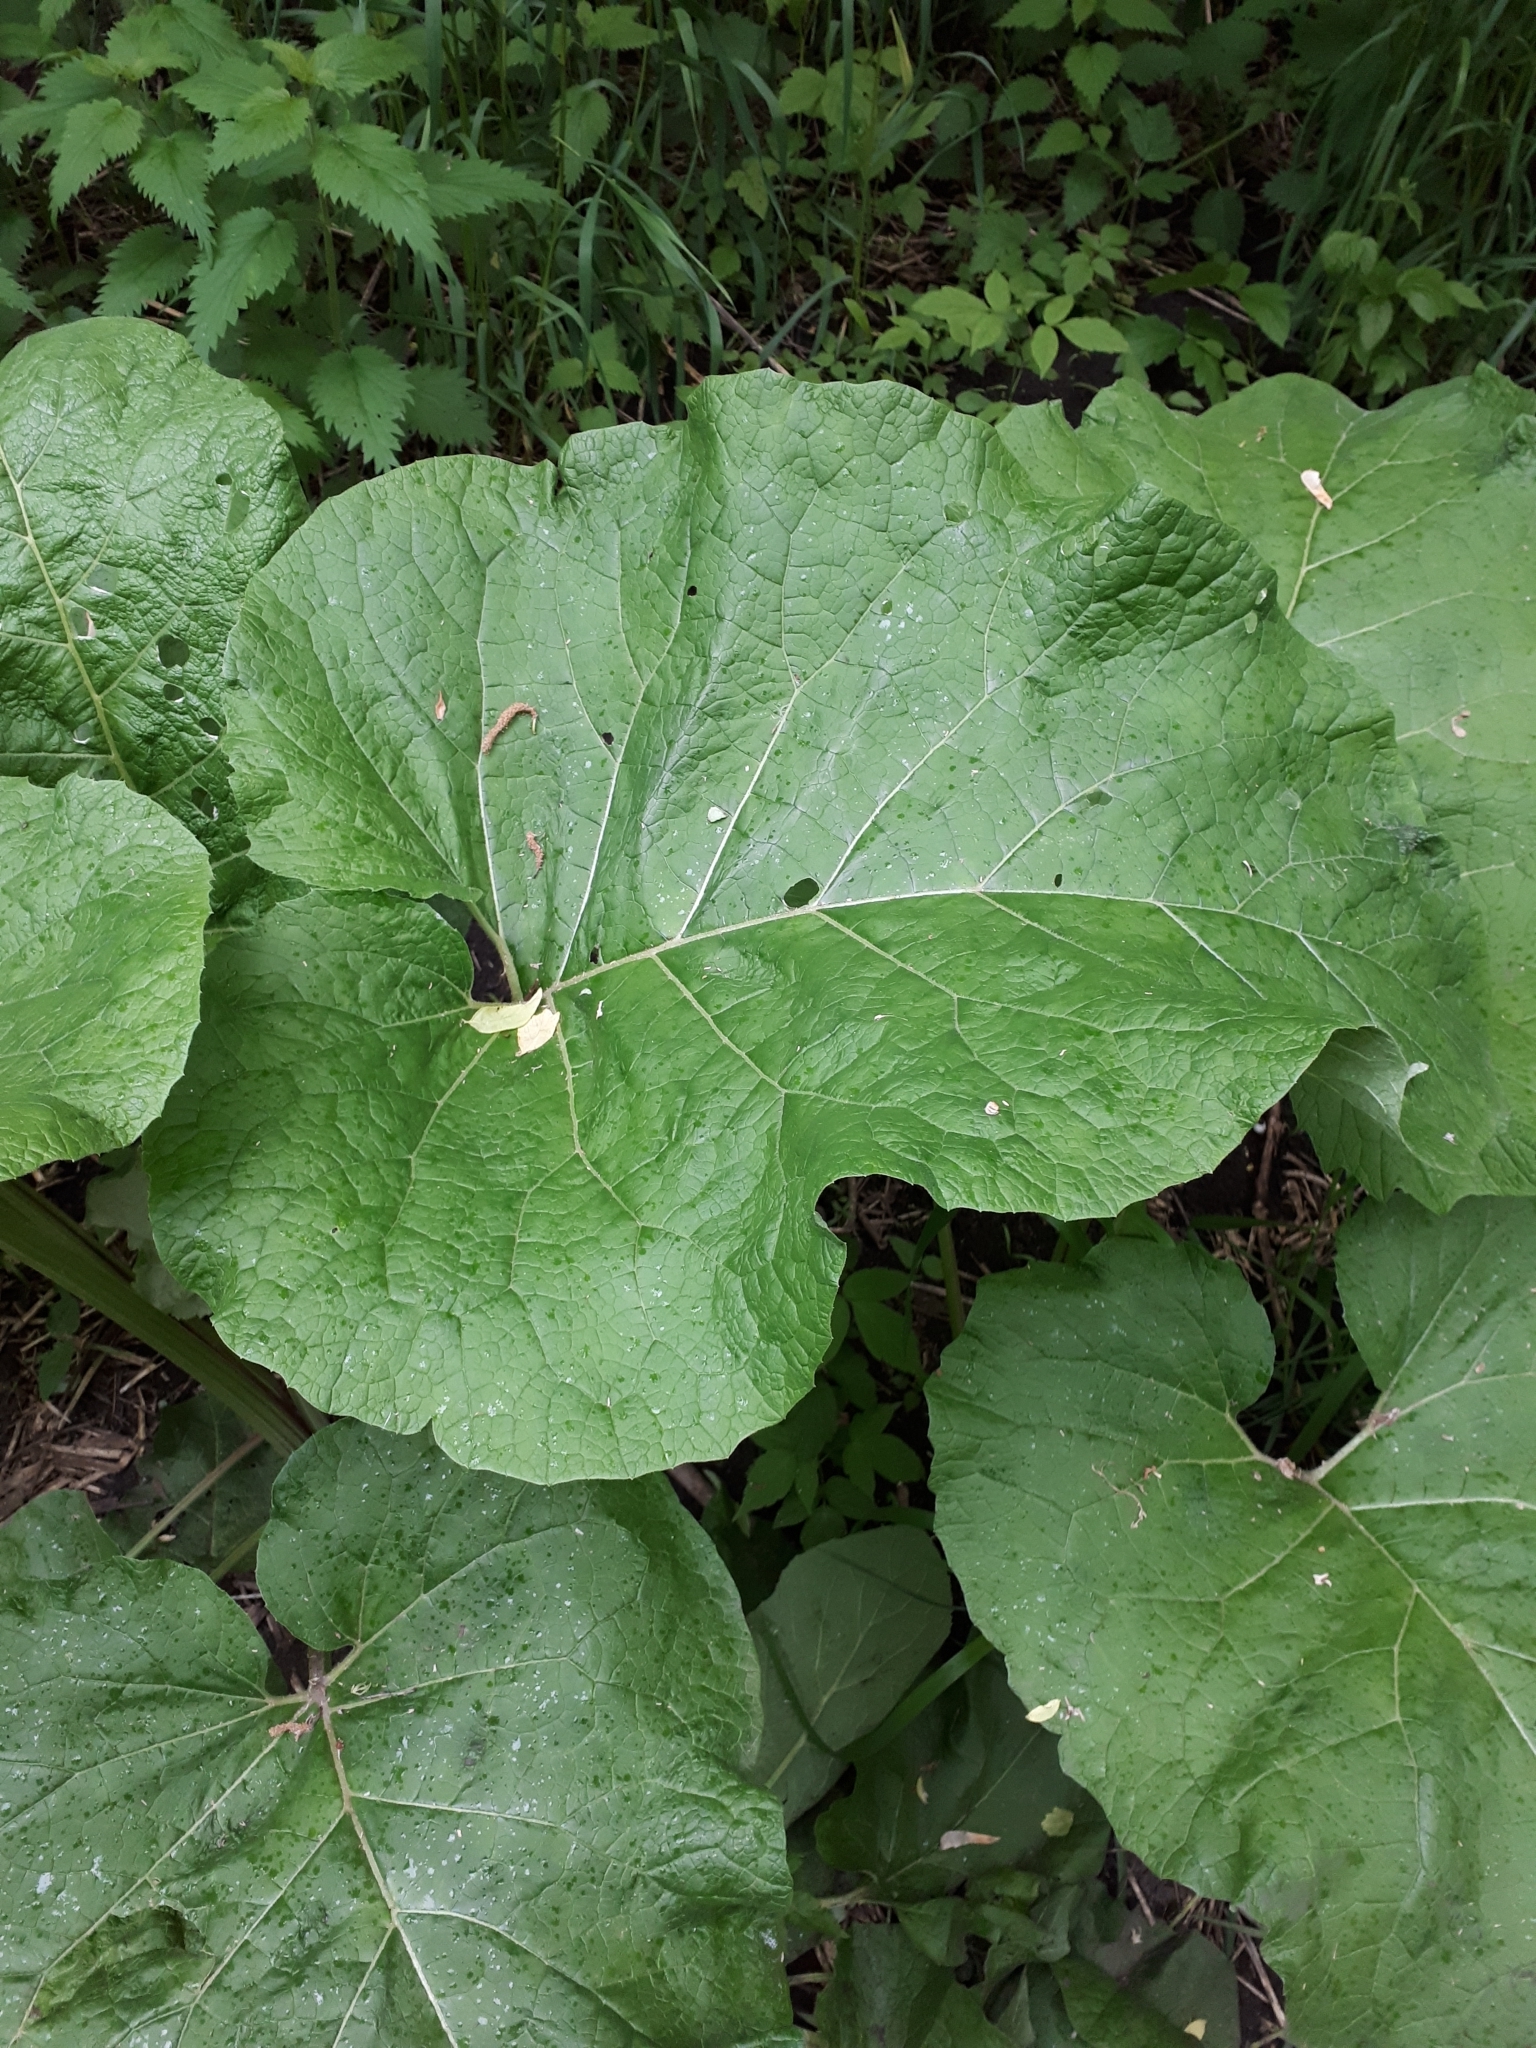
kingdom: Plantae
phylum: Tracheophyta
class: Magnoliopsida
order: Asterales
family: Asteraceae
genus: Arctium
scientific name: Arctium
